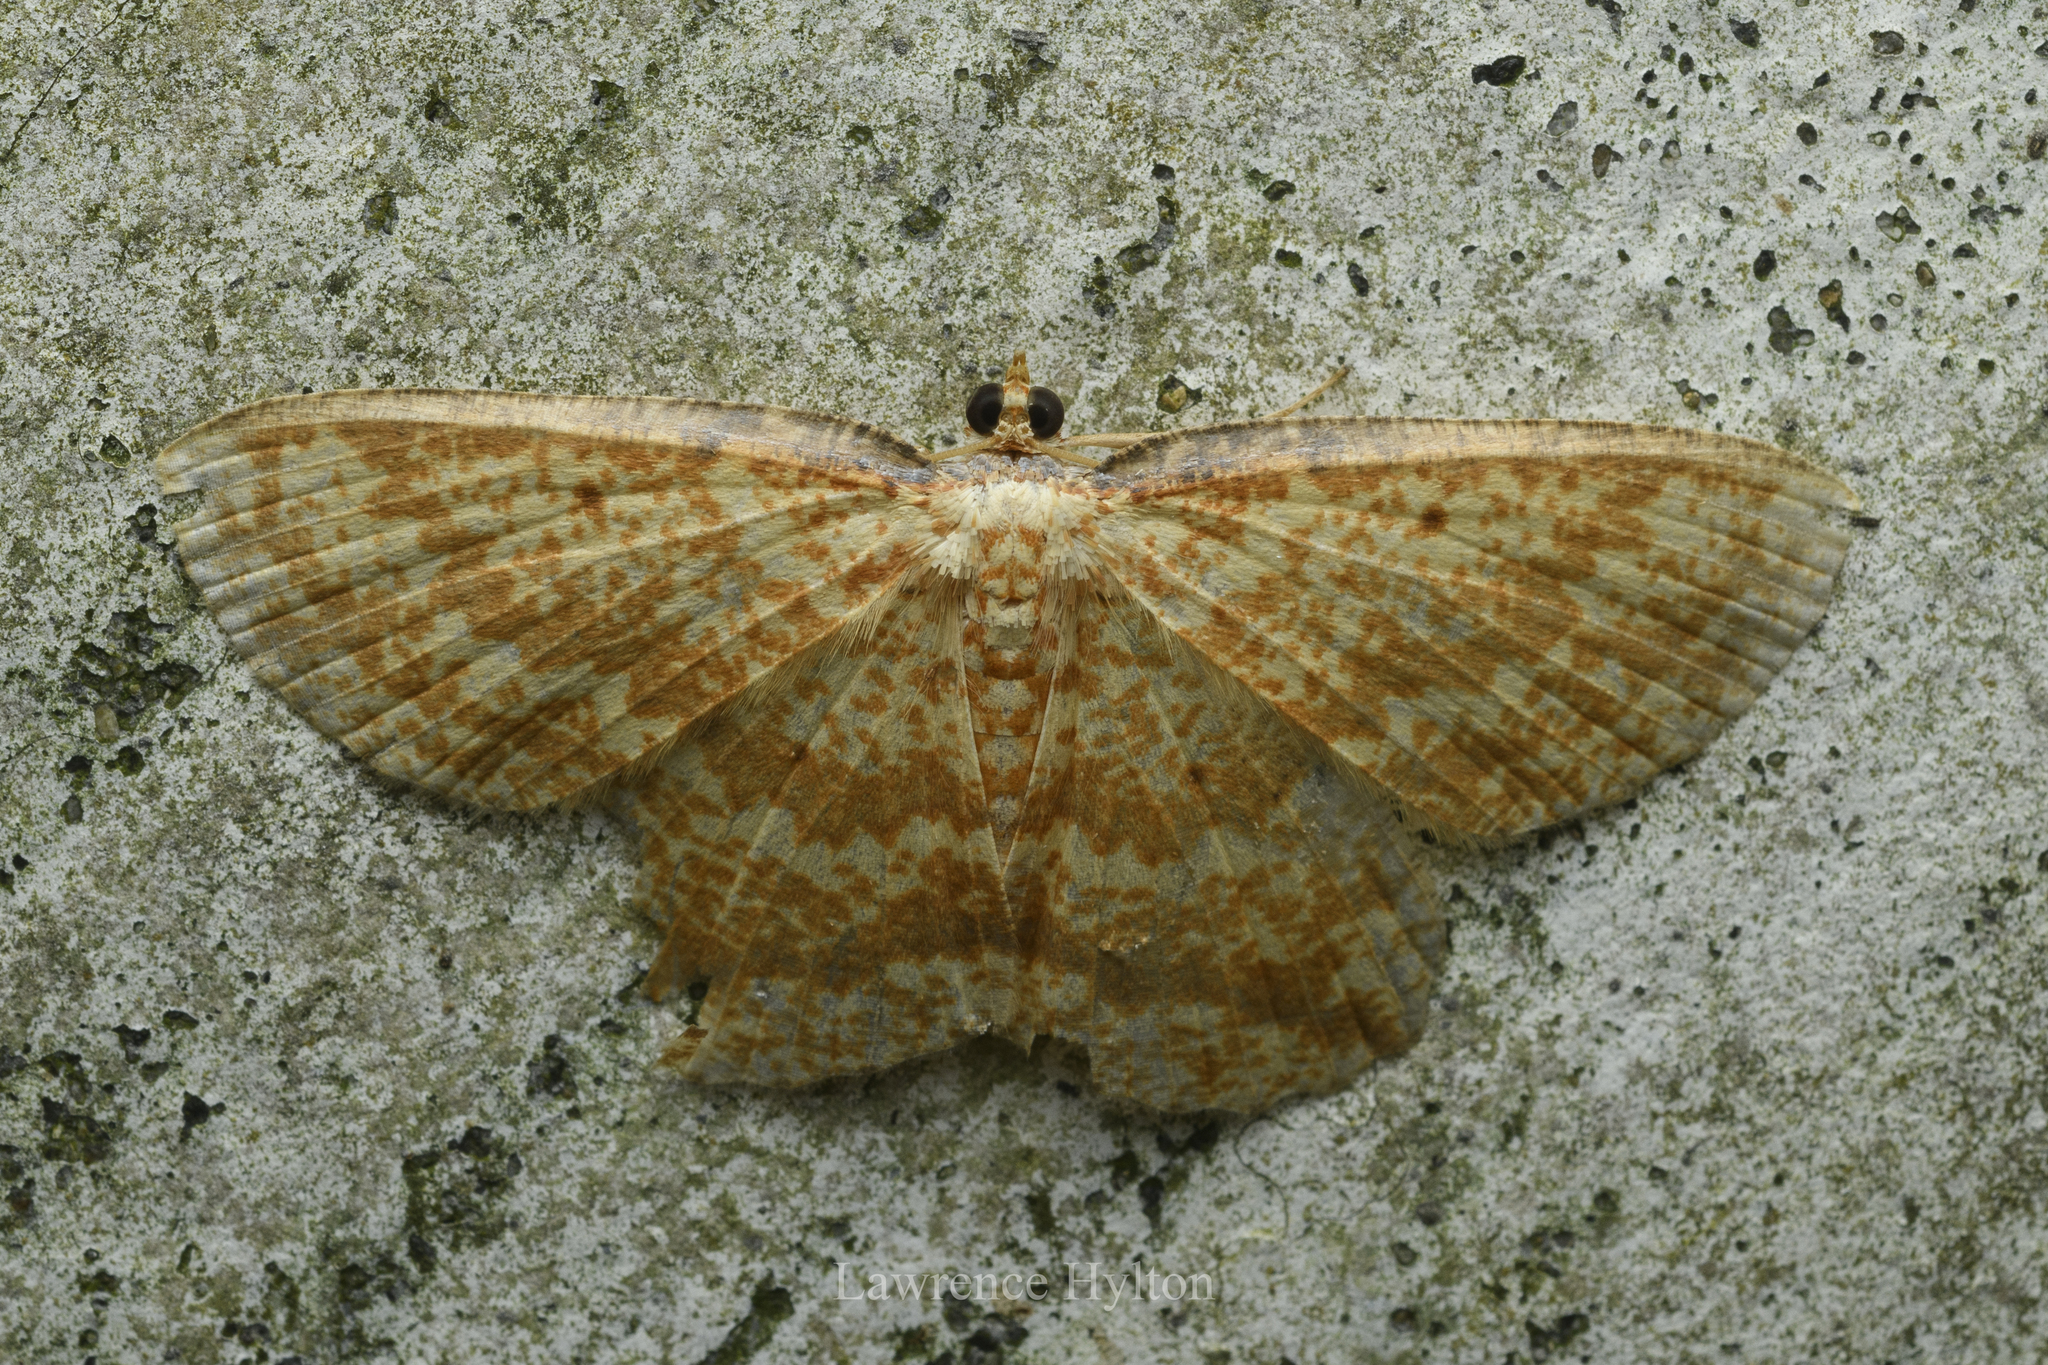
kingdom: Animalia
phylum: Arthropoda
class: Insecta
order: Lepidoptera
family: Geometridae
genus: Synegia
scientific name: Synegia eumeleata
